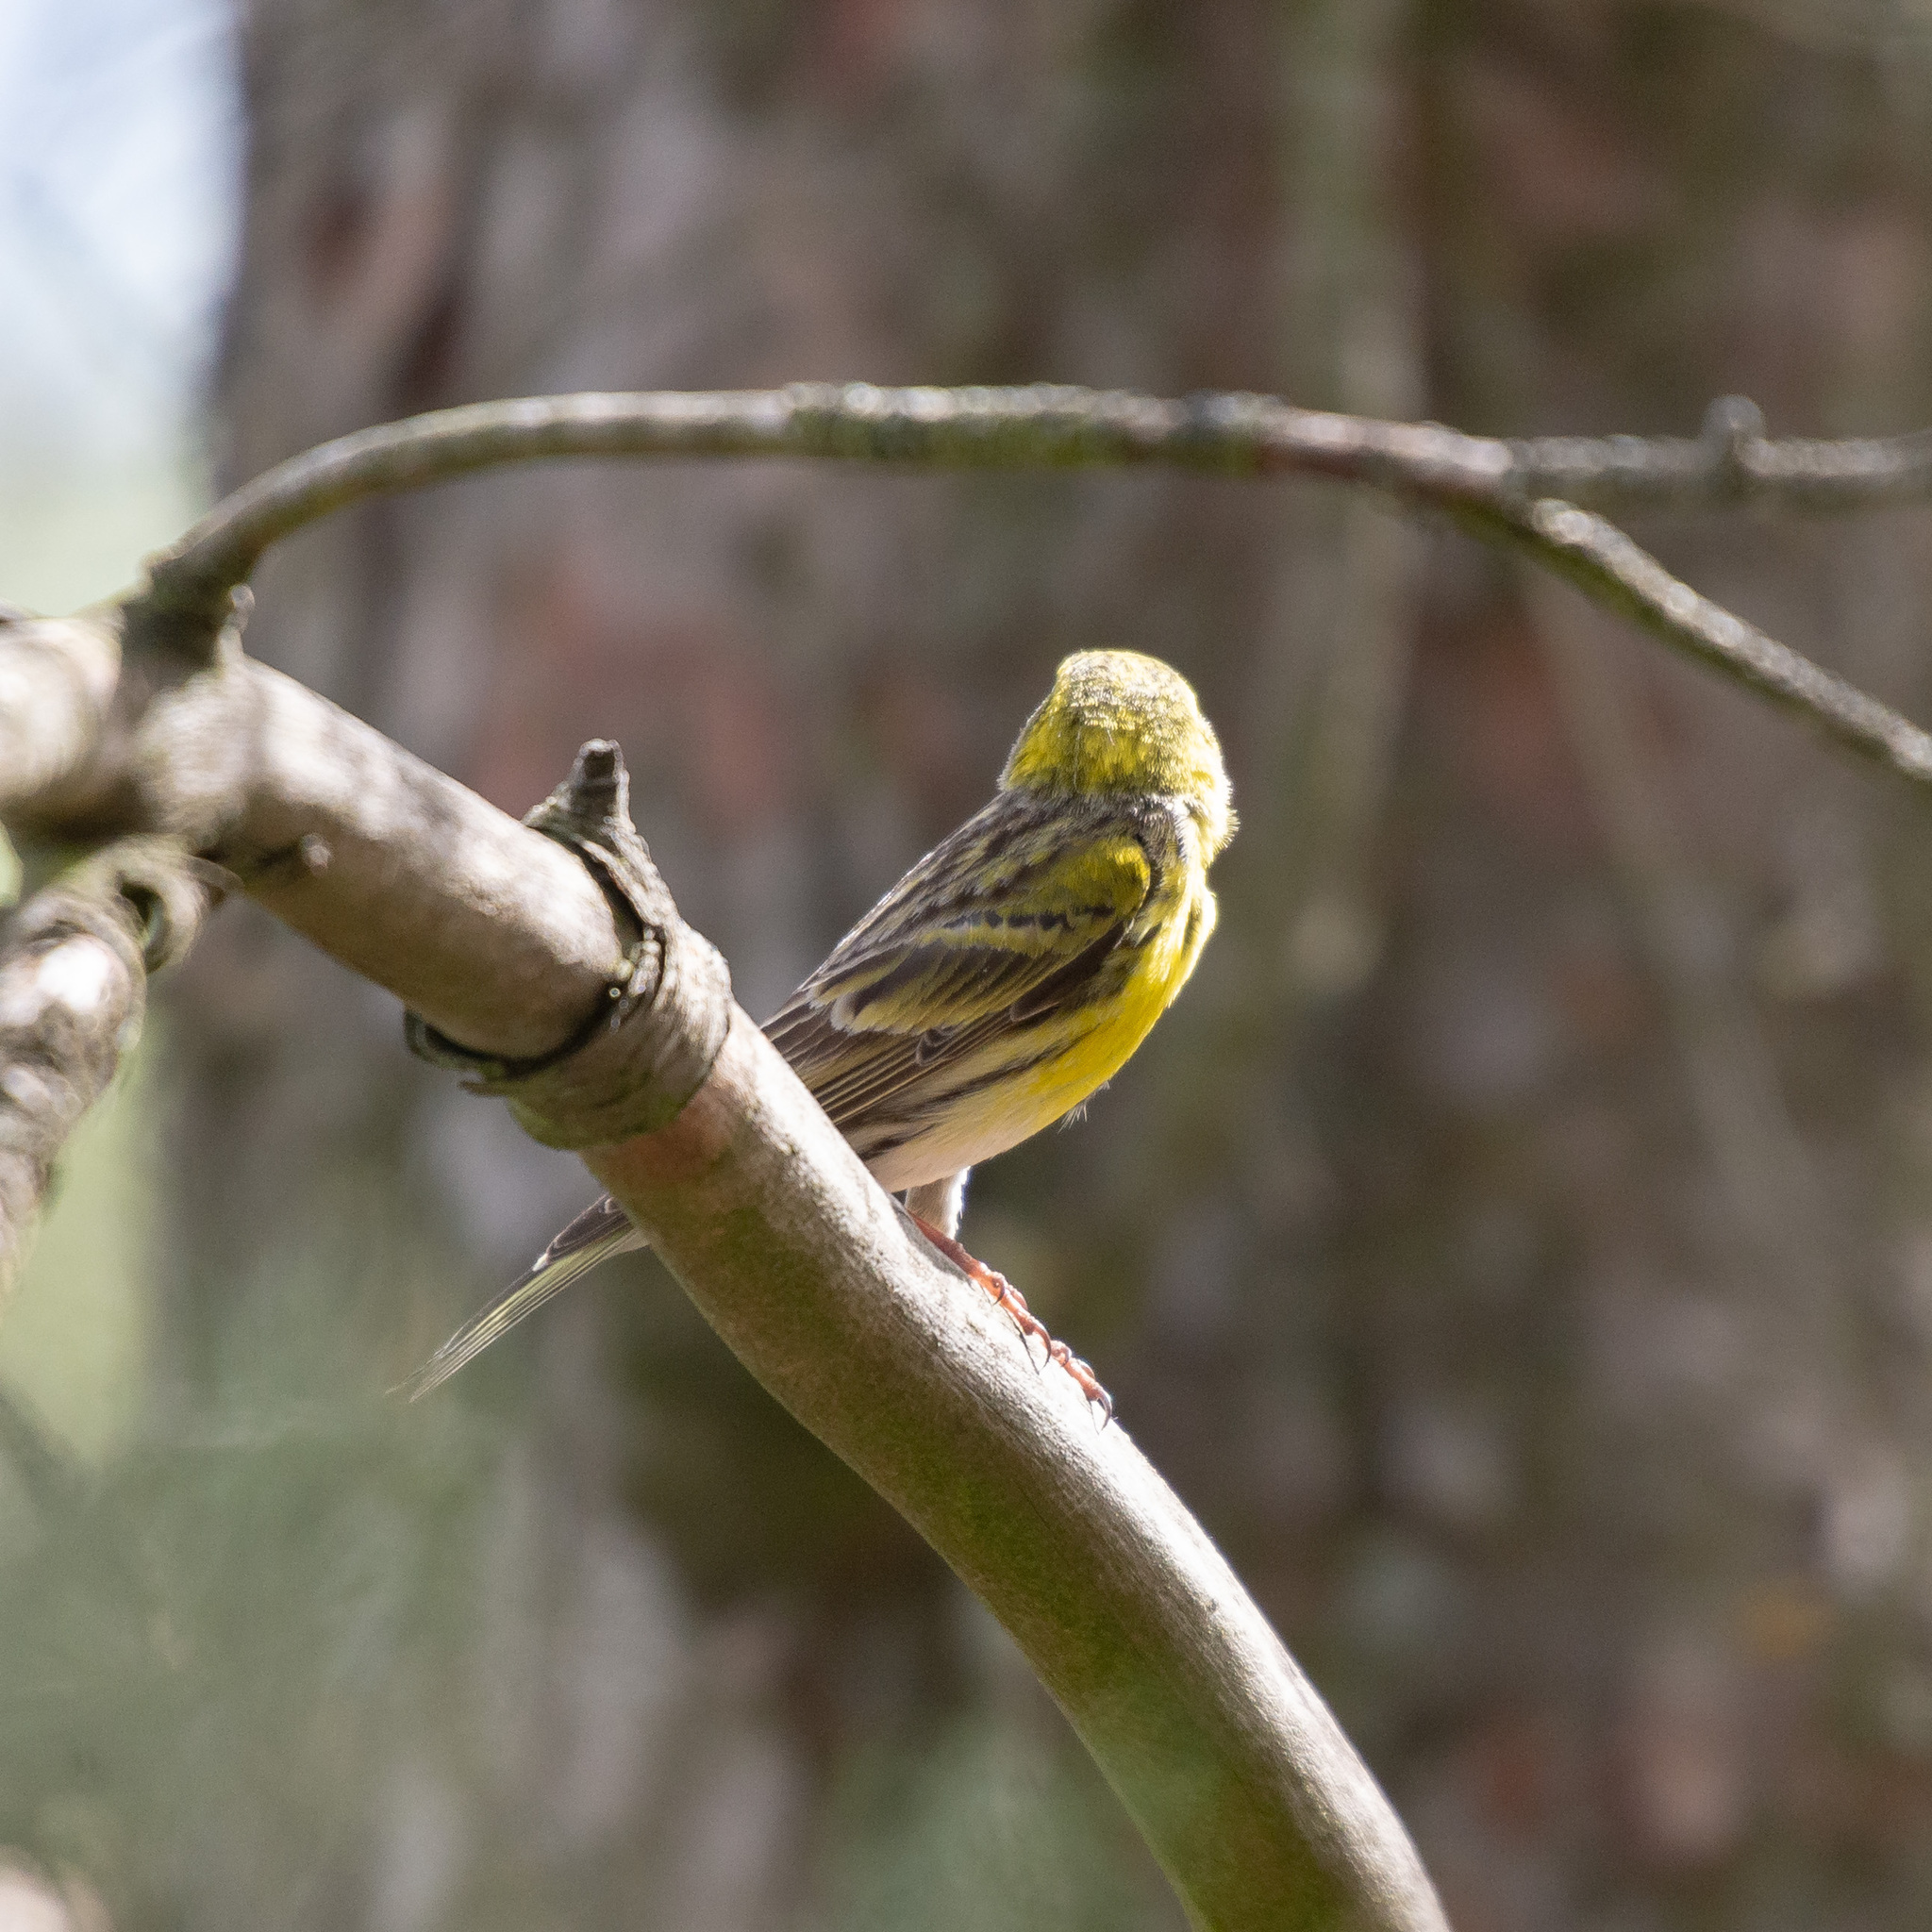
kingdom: Animalia
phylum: Chordata
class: Aves
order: Passeriformes
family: Fringillidae
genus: Serinus
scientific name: Serinus serinus
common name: European serin
